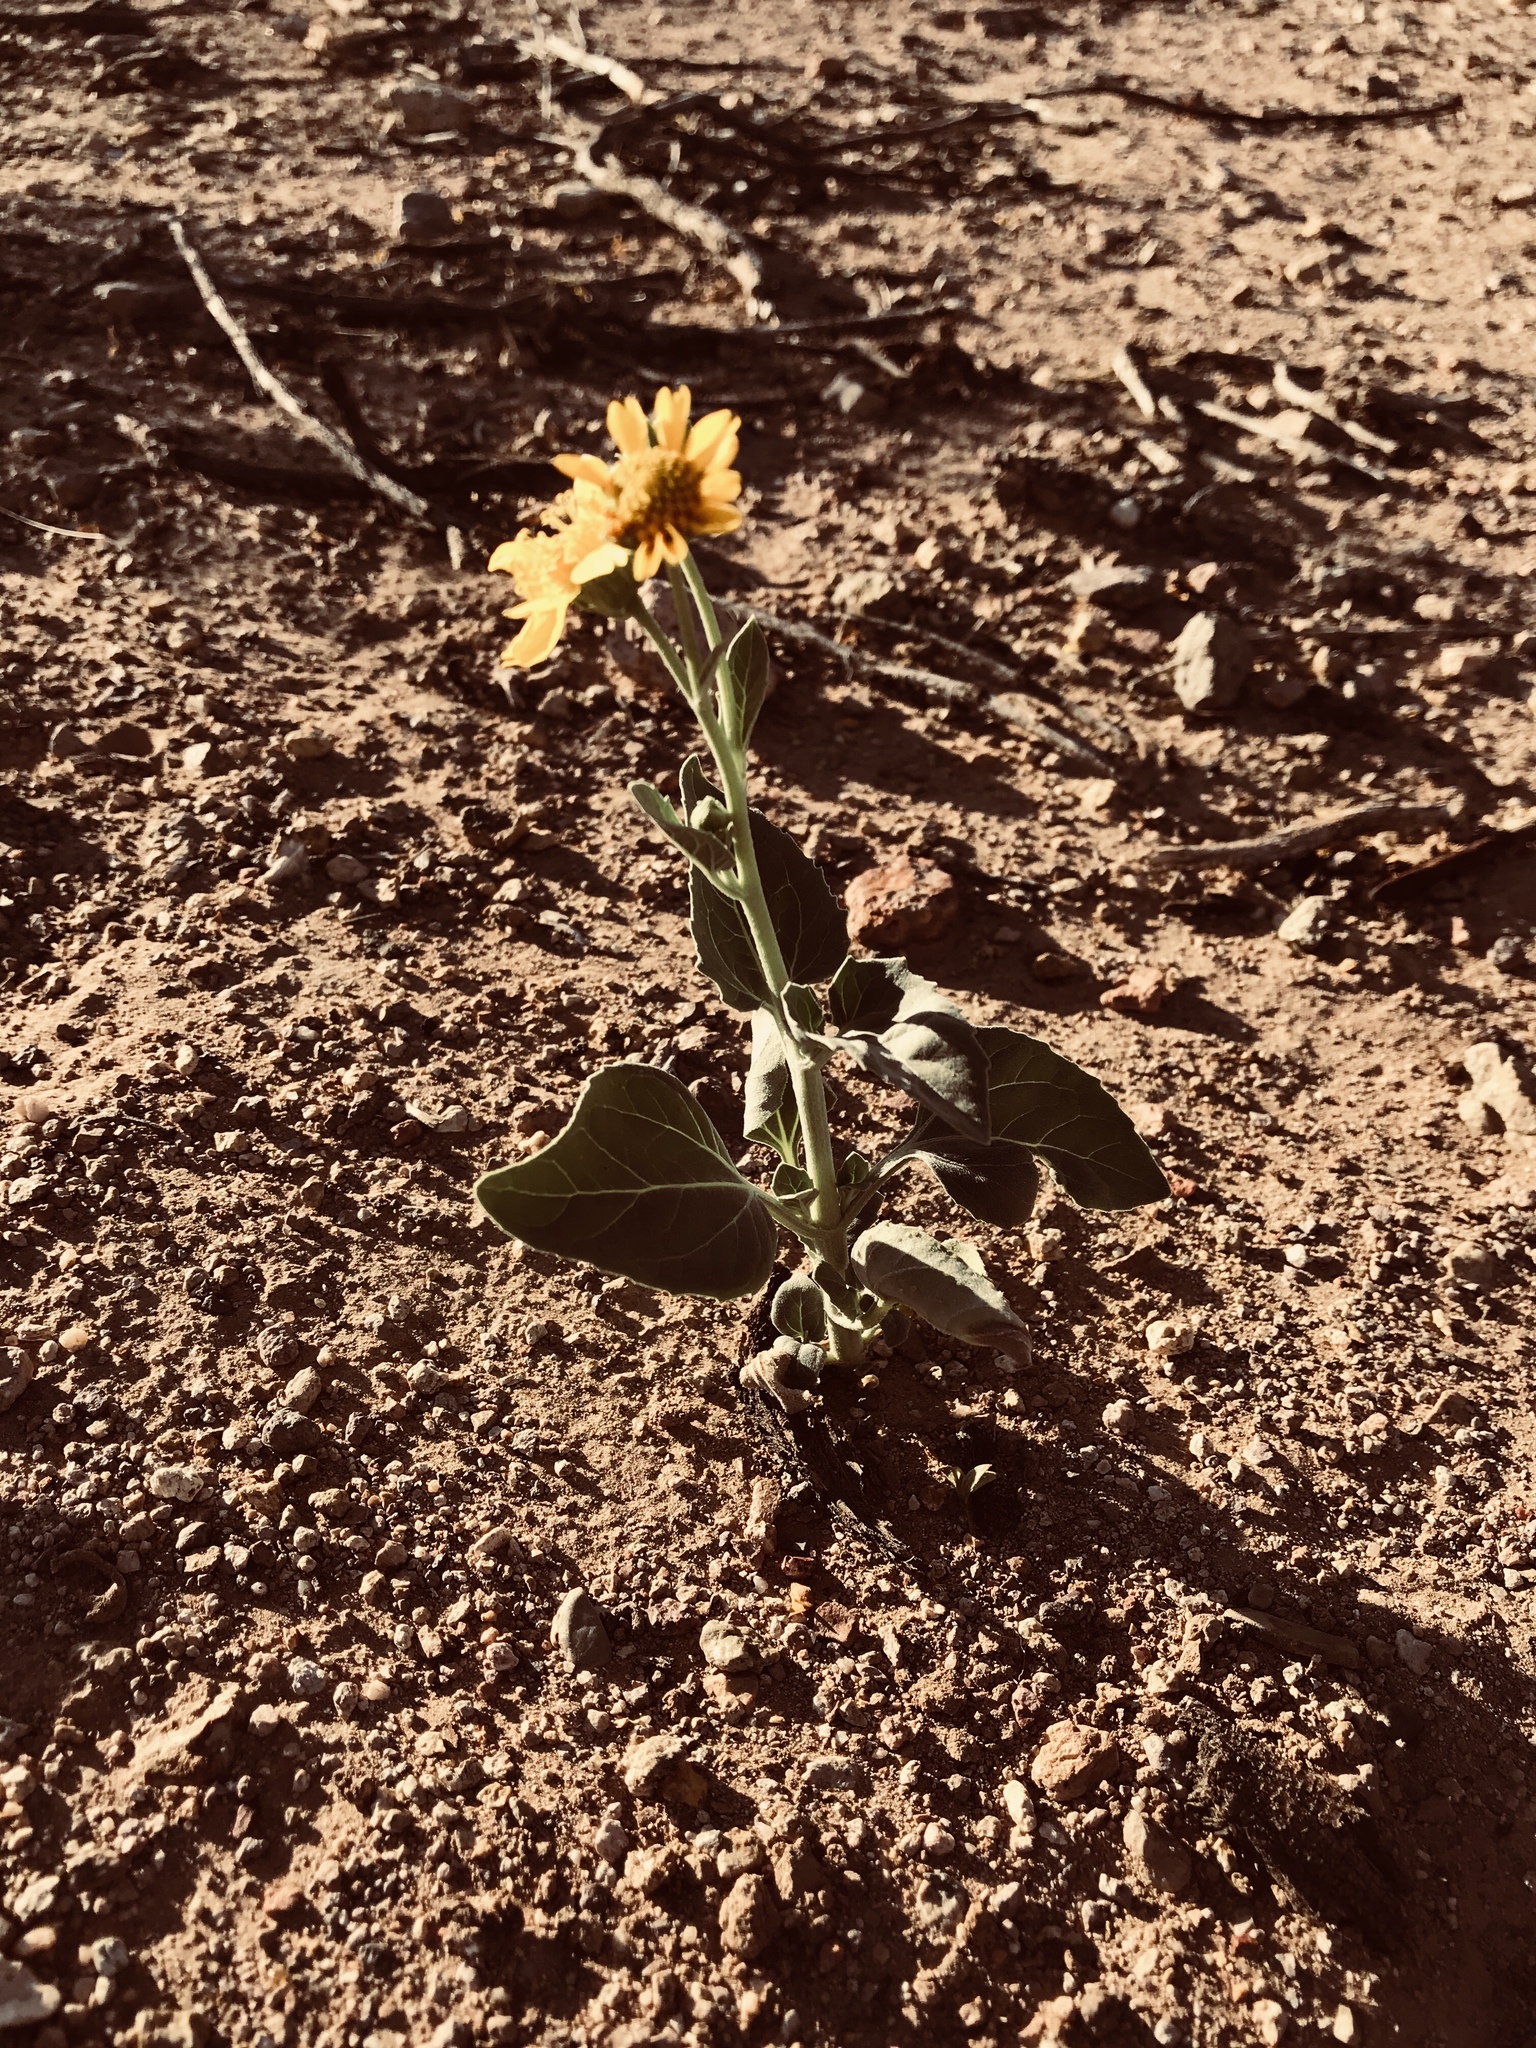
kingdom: Plantae
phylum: Tracheophyta
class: Magnoliopsida
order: Asterales
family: Asteraceae
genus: Verbesina
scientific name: Verbesina encelioides
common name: Golden crownbeard
